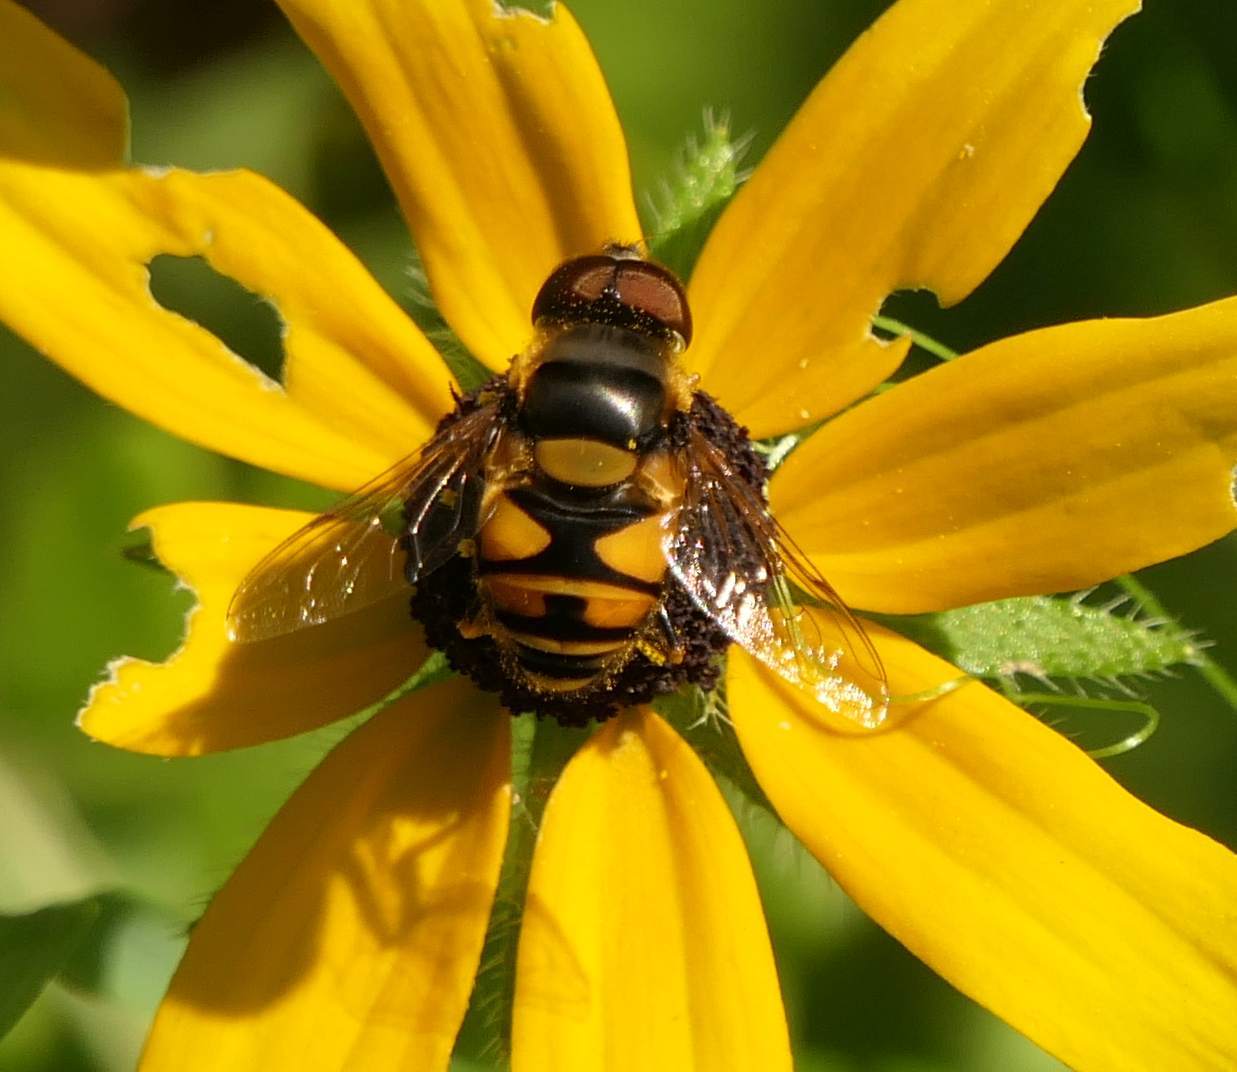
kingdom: Animalia
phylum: Arthropoda
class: Insecta
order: Diptera
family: Syrphidae
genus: Eristalis
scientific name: Eristalis transversa
